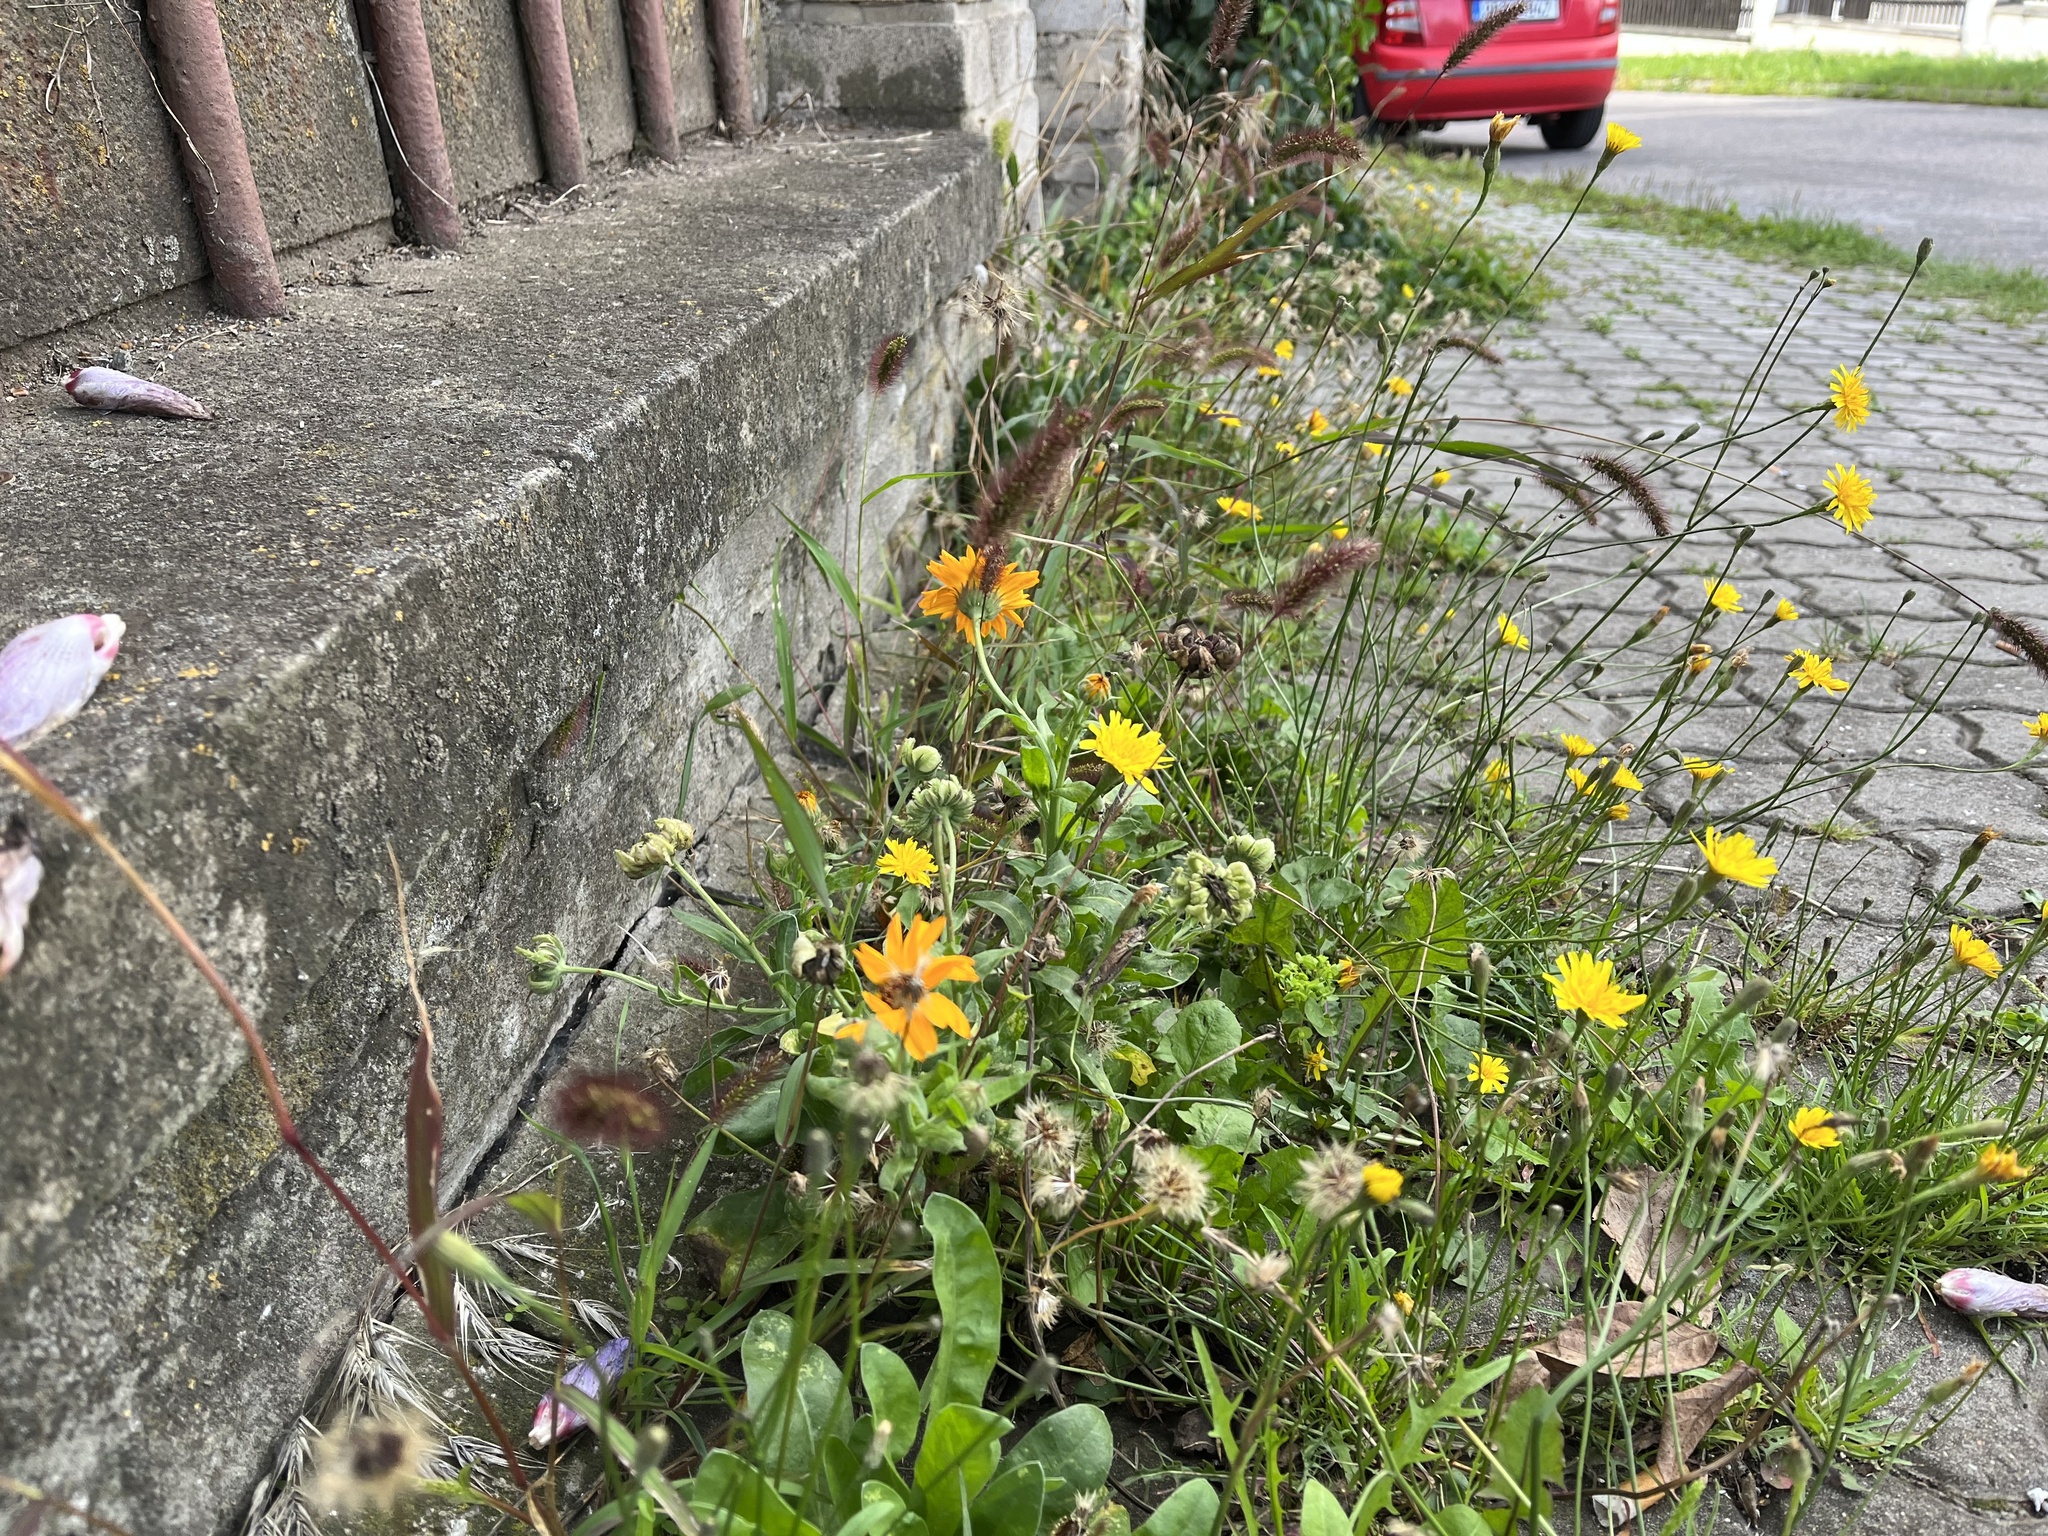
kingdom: Plantae
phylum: Tracheophyta
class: Magnoliopsida
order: Asterales
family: Asteraceae
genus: Calendula
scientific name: Calendula officinalis
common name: Pot marigold
